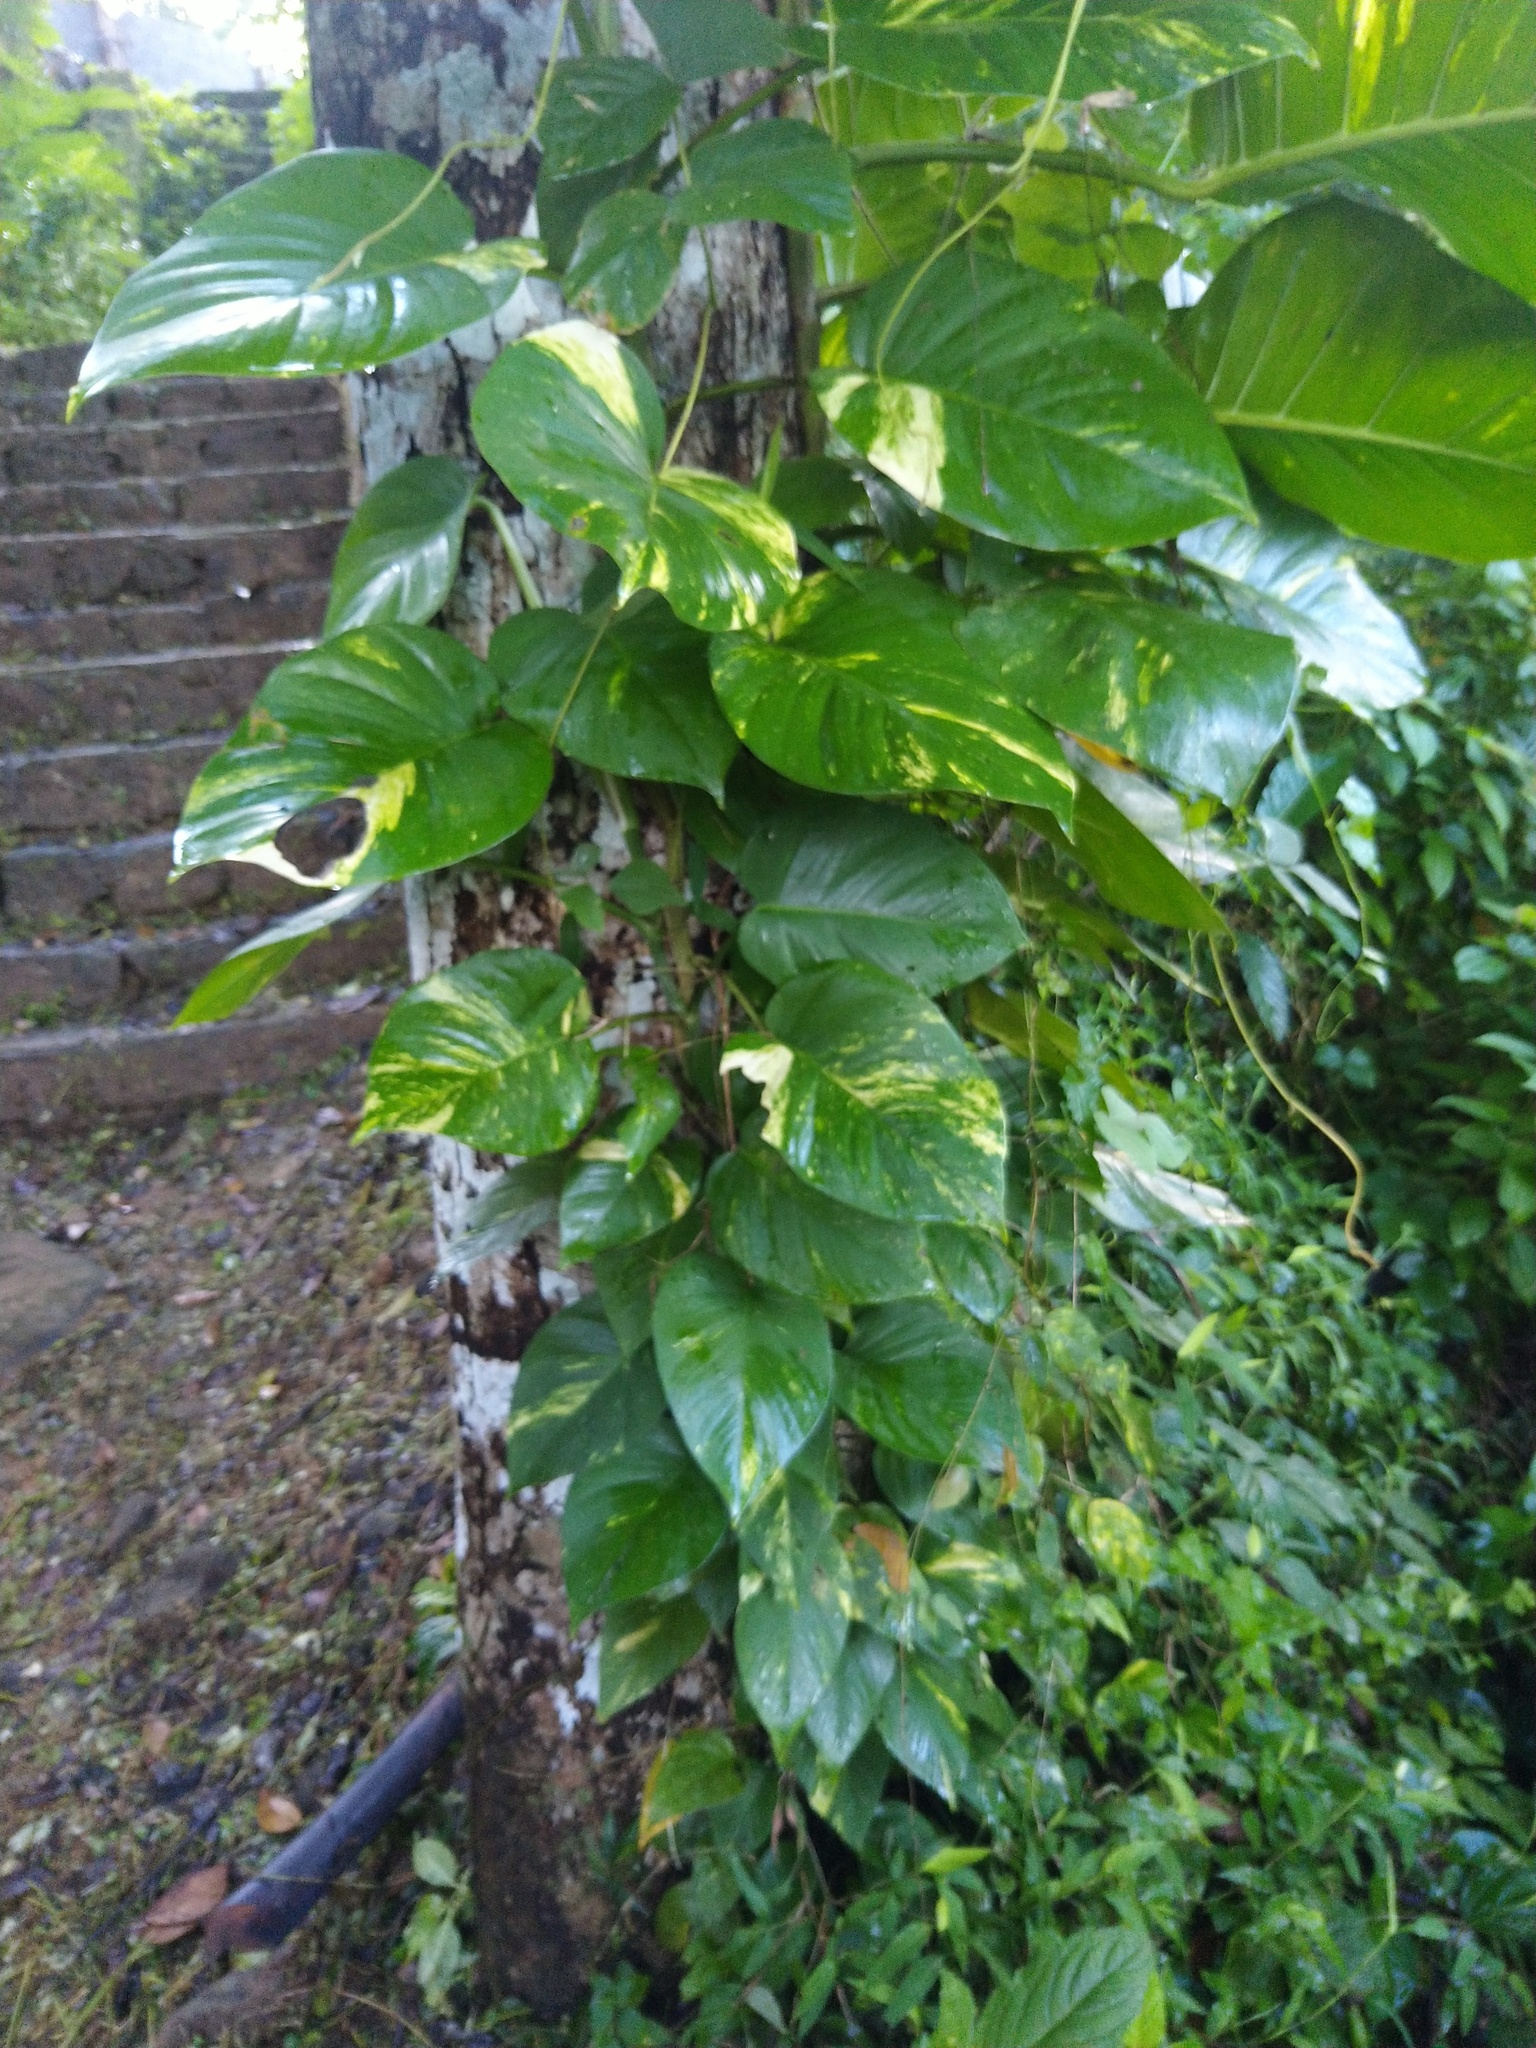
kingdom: Plantae
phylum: Tracheophyta
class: Liliopsida
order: Alismatales
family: Araceae
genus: Epipremnum
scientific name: Epipremnum aureum
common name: Golden hunter's-robe
